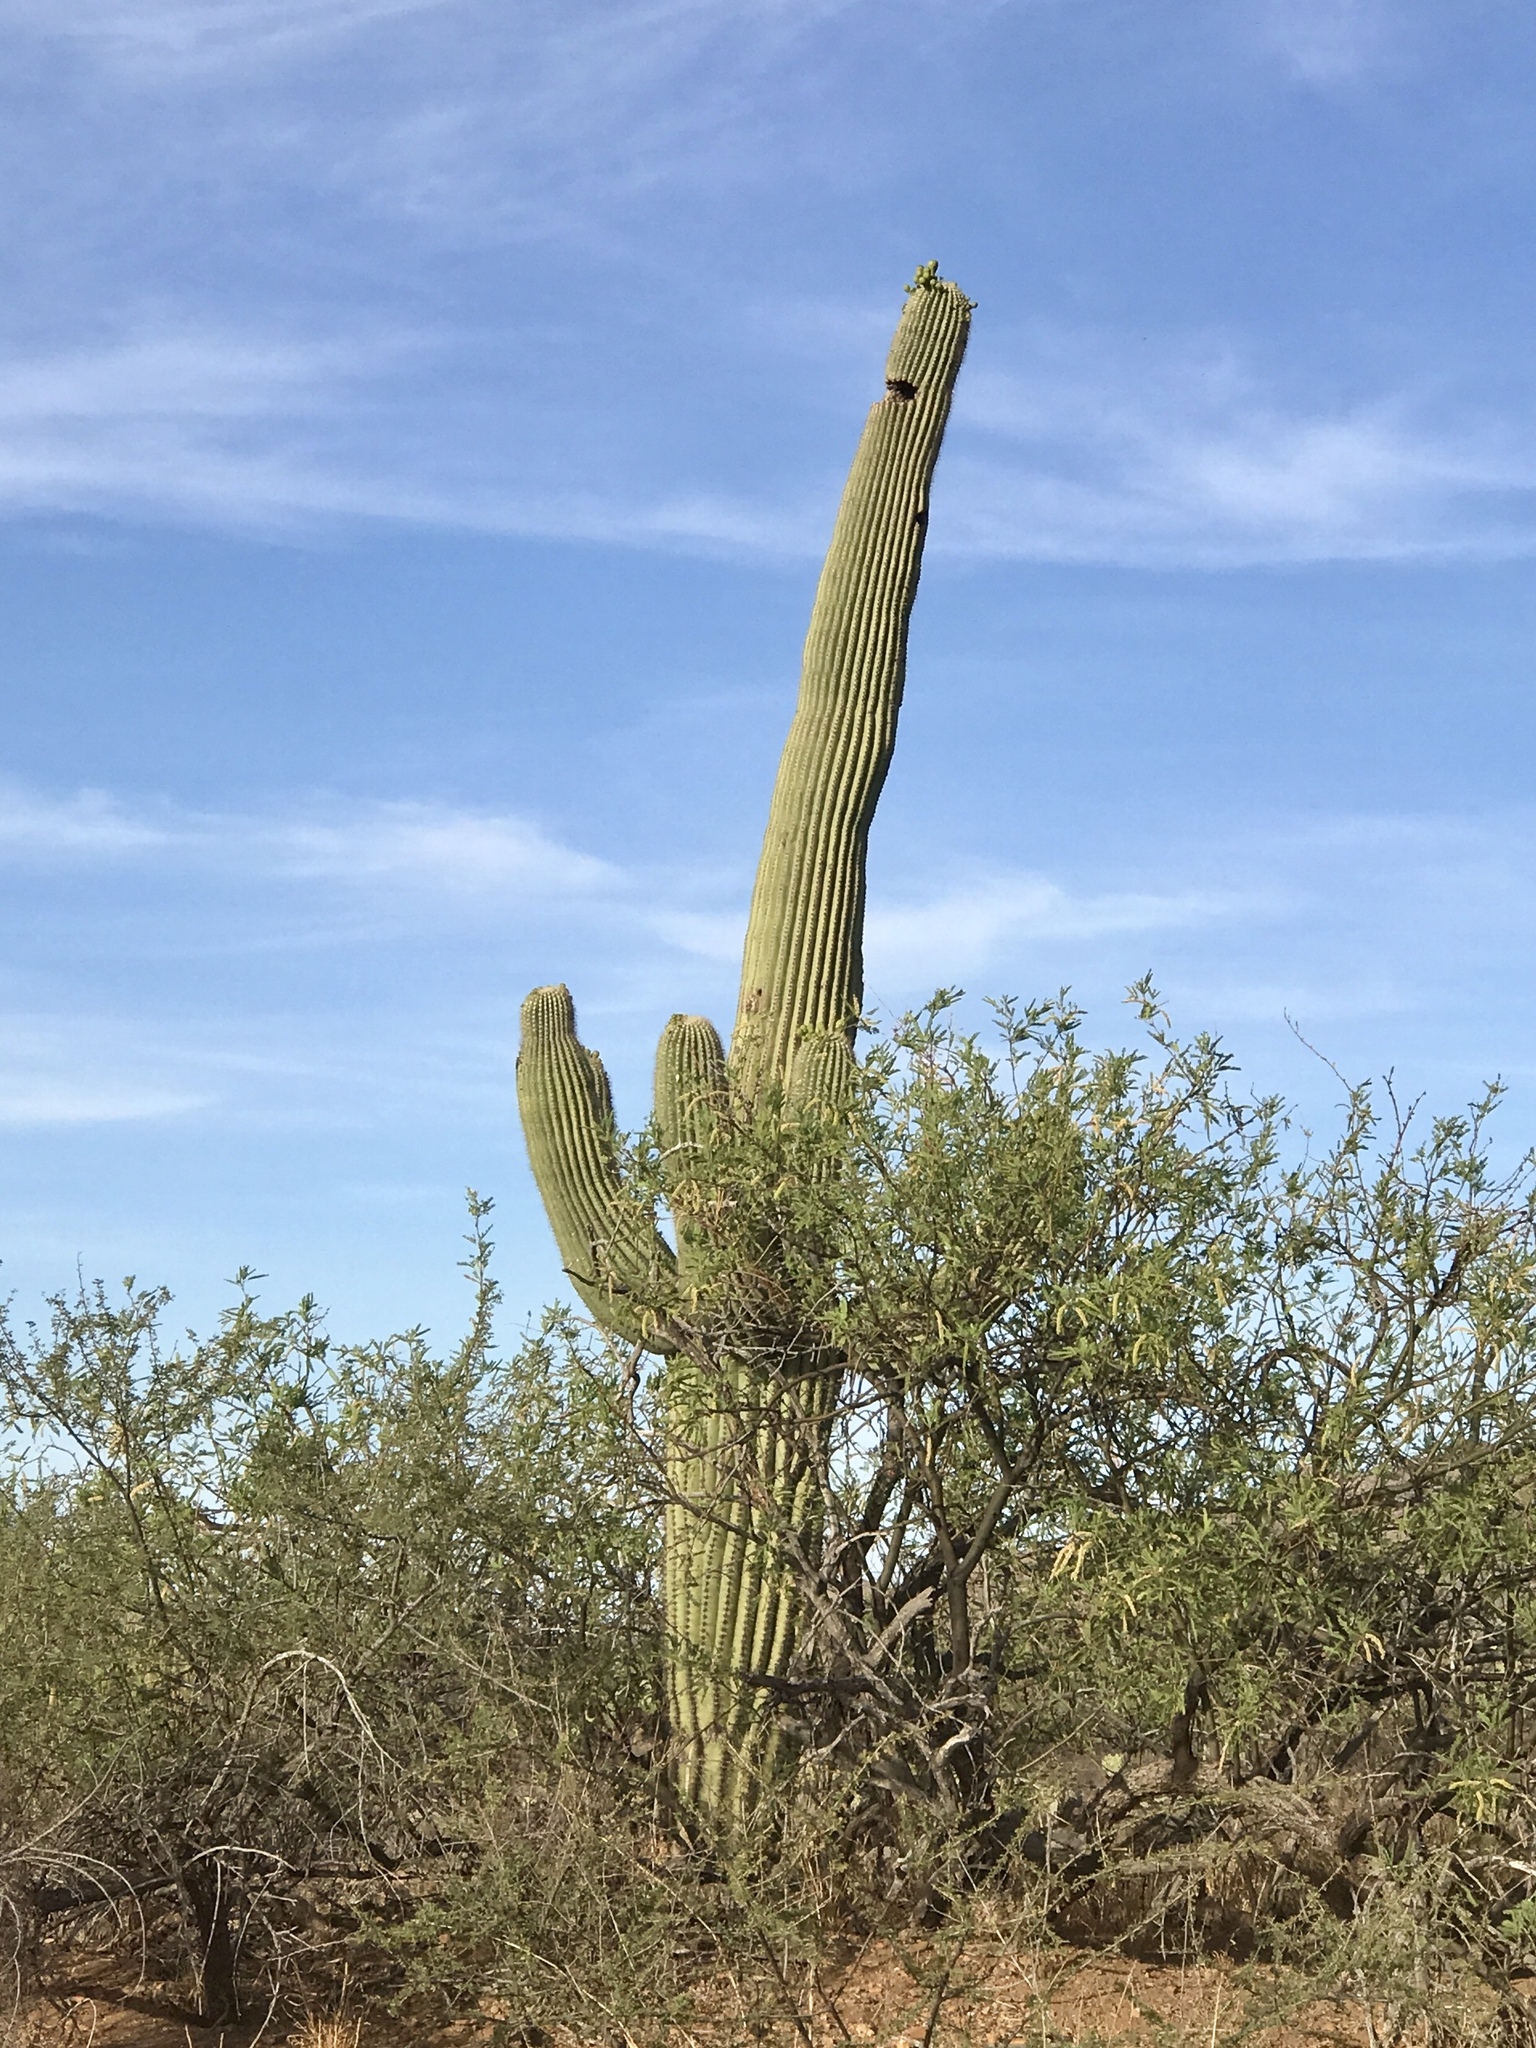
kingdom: Plantae
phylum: Tracheophyta
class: Magnoliopsida
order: Caryophyllales
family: Cactaceae
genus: Carnegiea
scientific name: Carnegiea gigantea
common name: Saguaro
